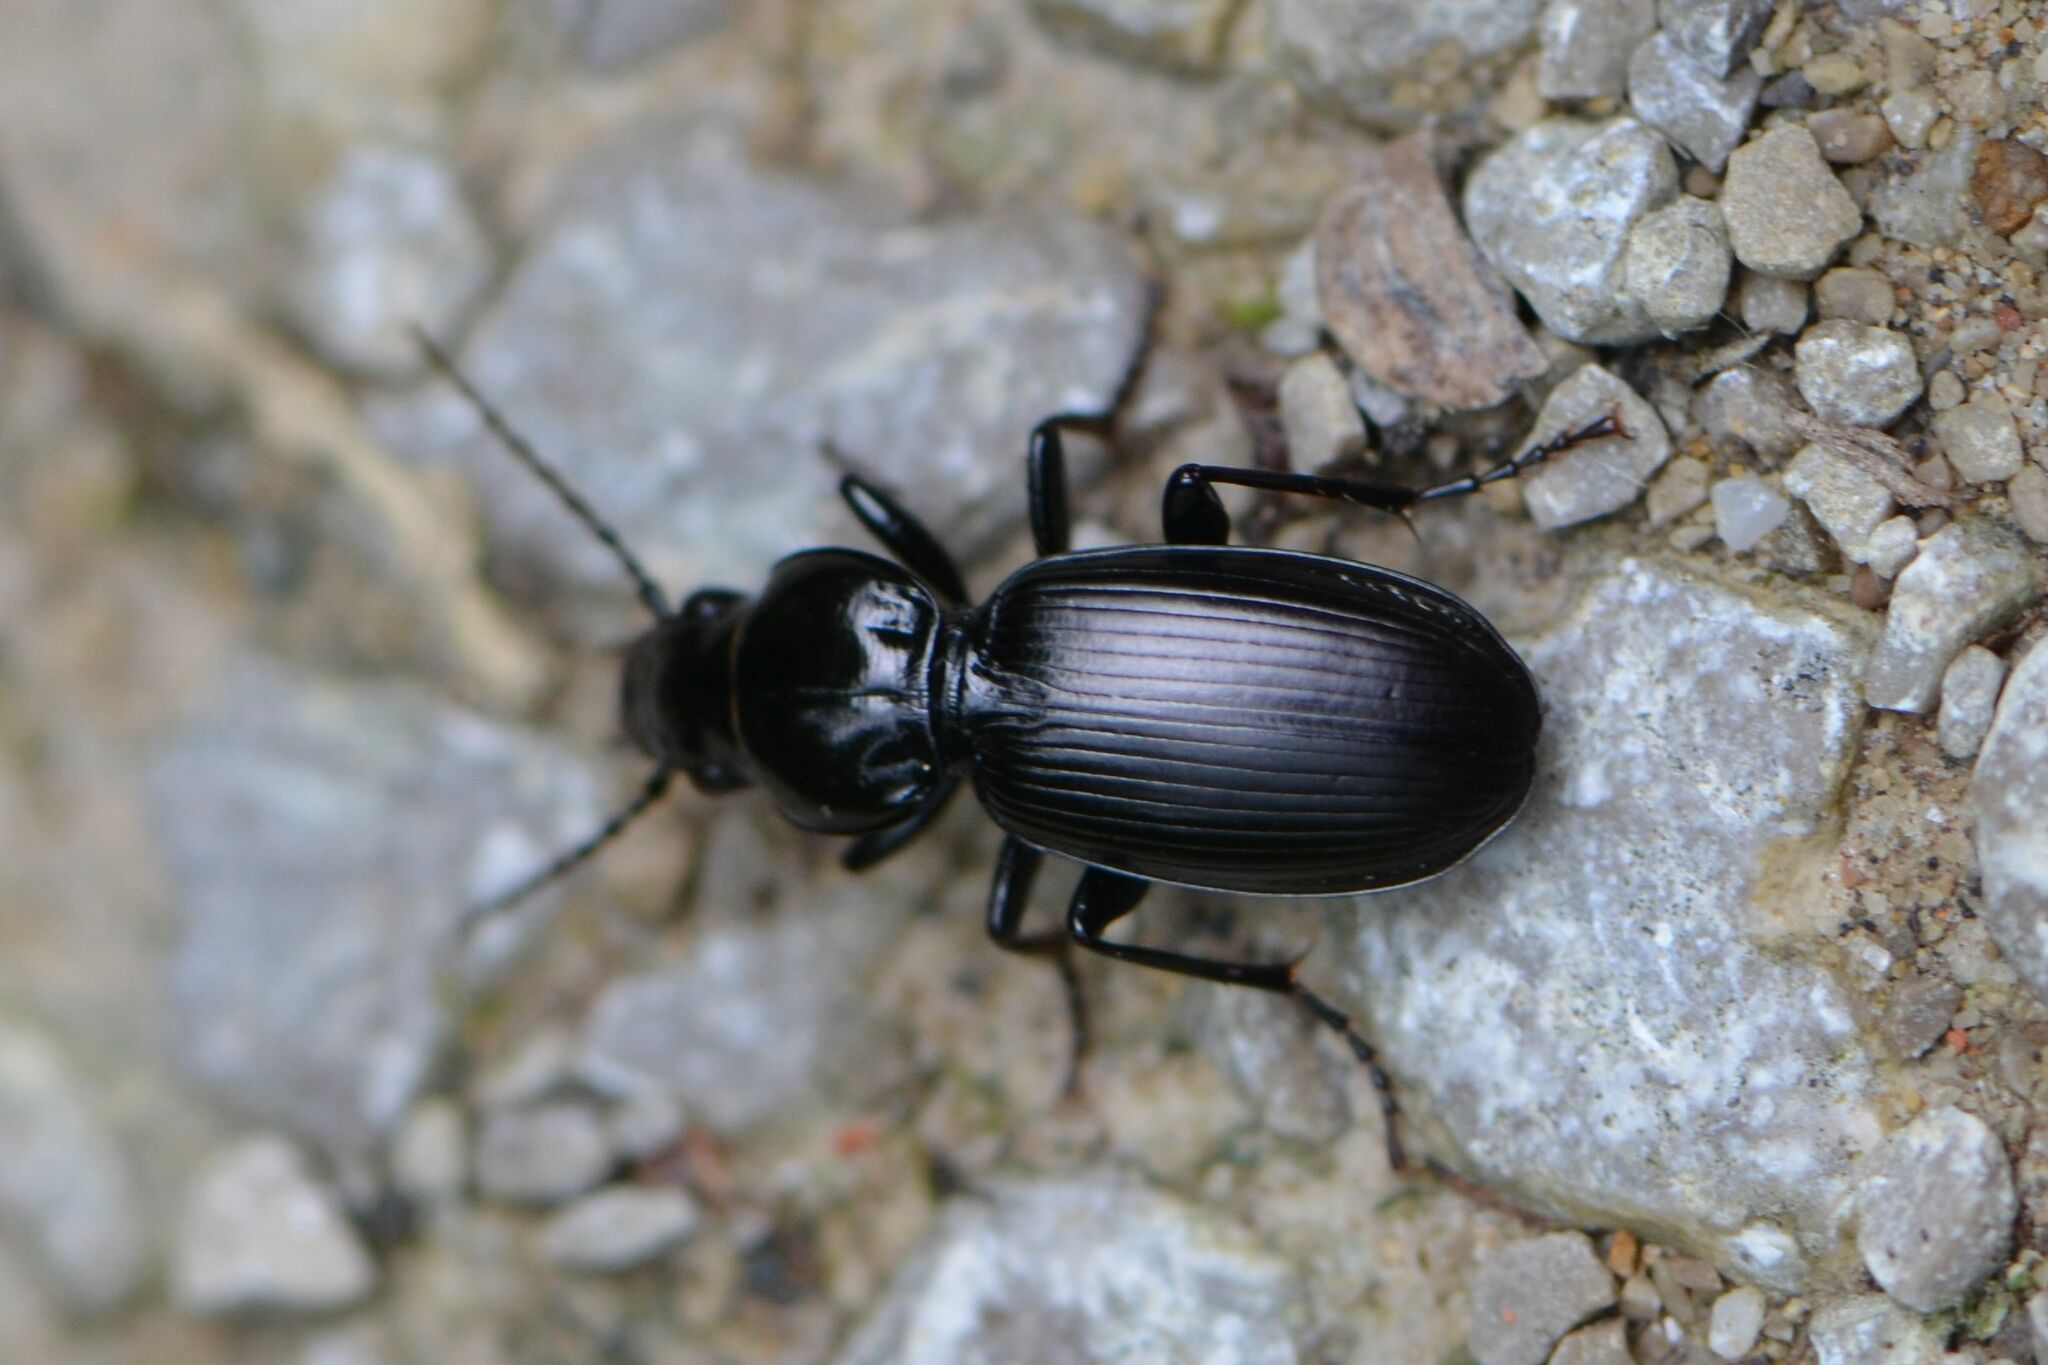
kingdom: Animalia
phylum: Arthropoda
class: Insecta
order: Coleoptera
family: Carabidae
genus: Pterostichus
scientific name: Pterostichus madidus
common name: Black clock
